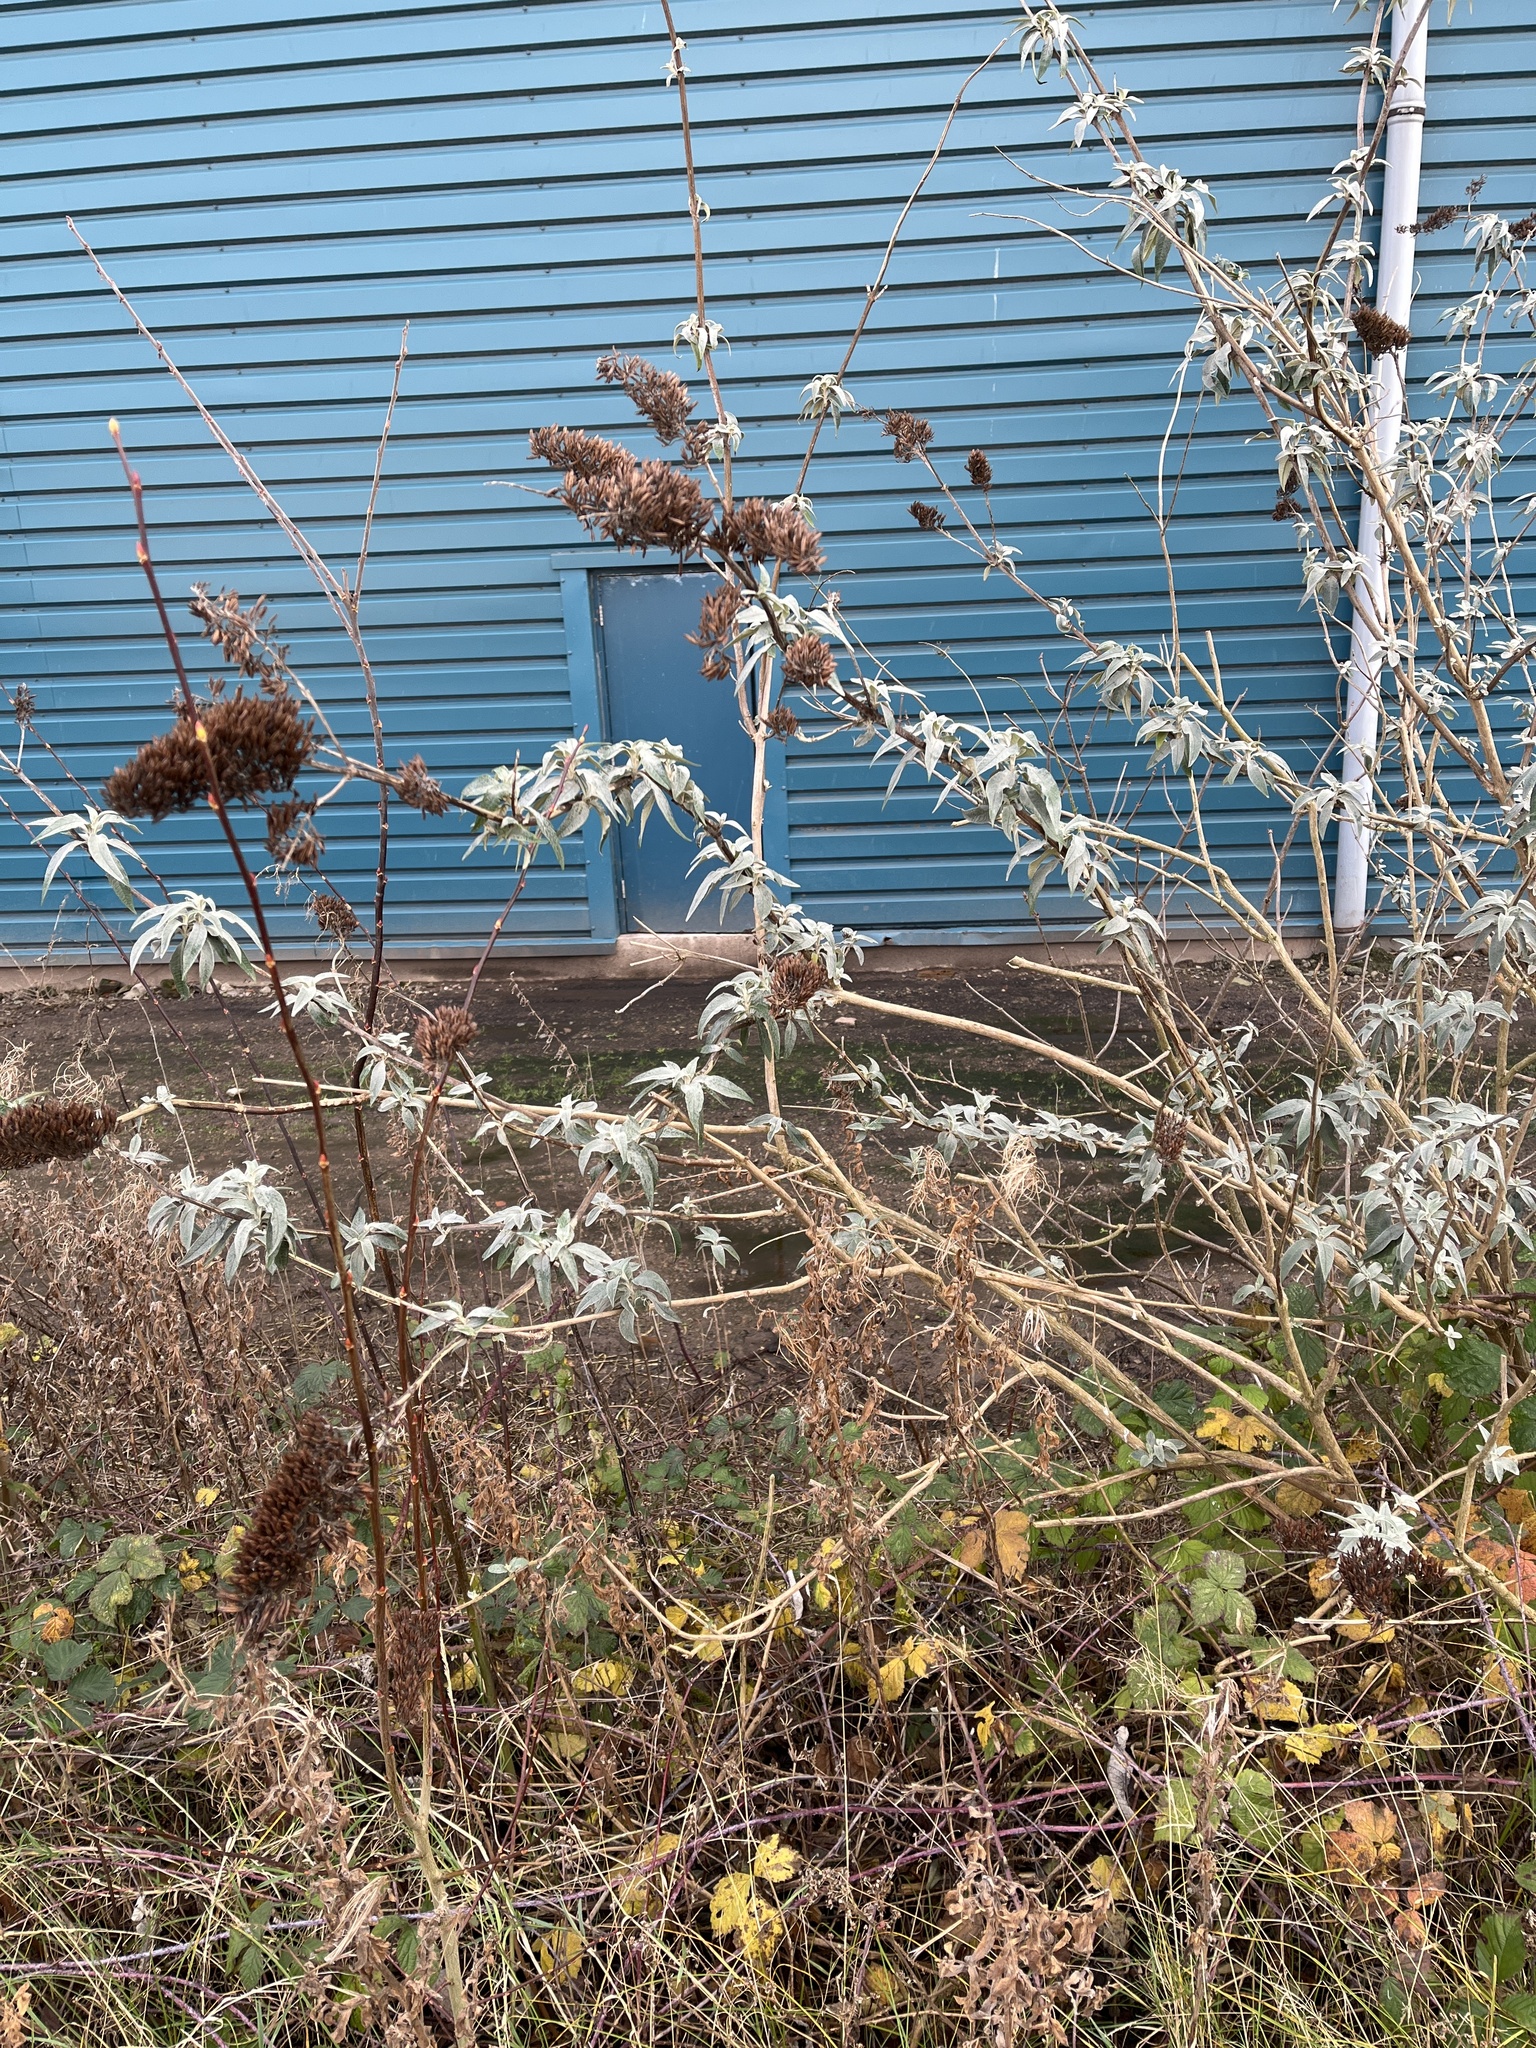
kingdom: Plantae
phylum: Tracheophyta
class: Magnoliopsida
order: Lamiales
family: Scrophulariaceae
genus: Buddleja
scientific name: Buddleja davidii
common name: Butterfly-bush
